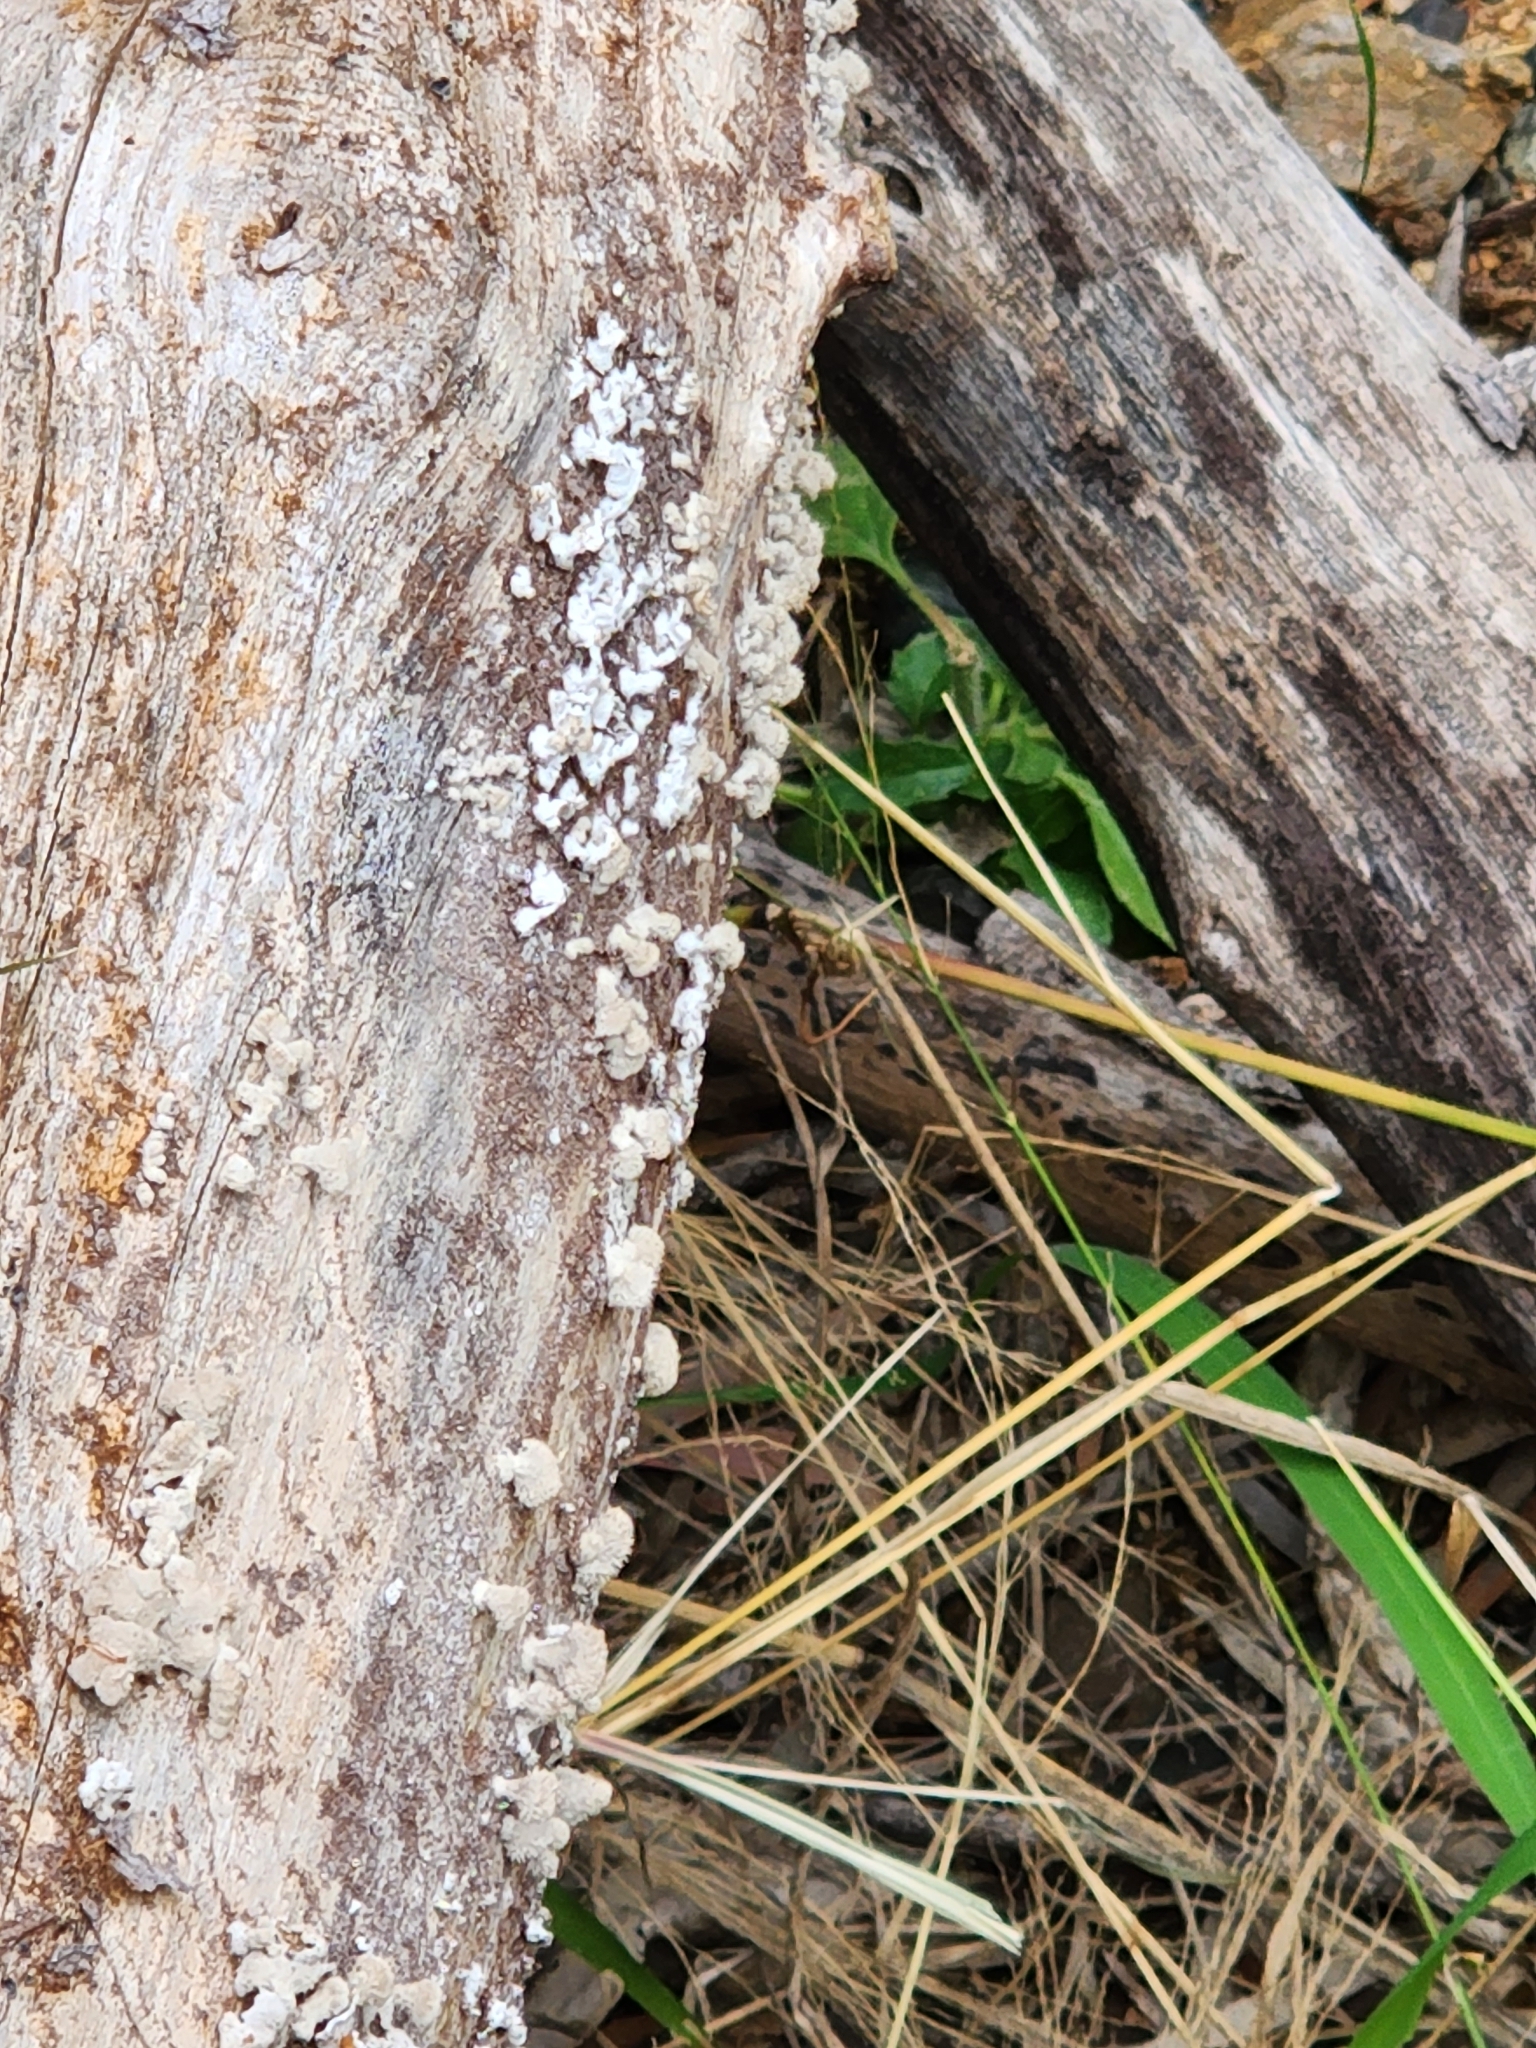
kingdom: Fungi
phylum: Basidiomycota
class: Agaricomycetes
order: Agaricales
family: Schizophyllaceae
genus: Schizophyllum
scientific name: Schizophyllum commune
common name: Common porecrust
